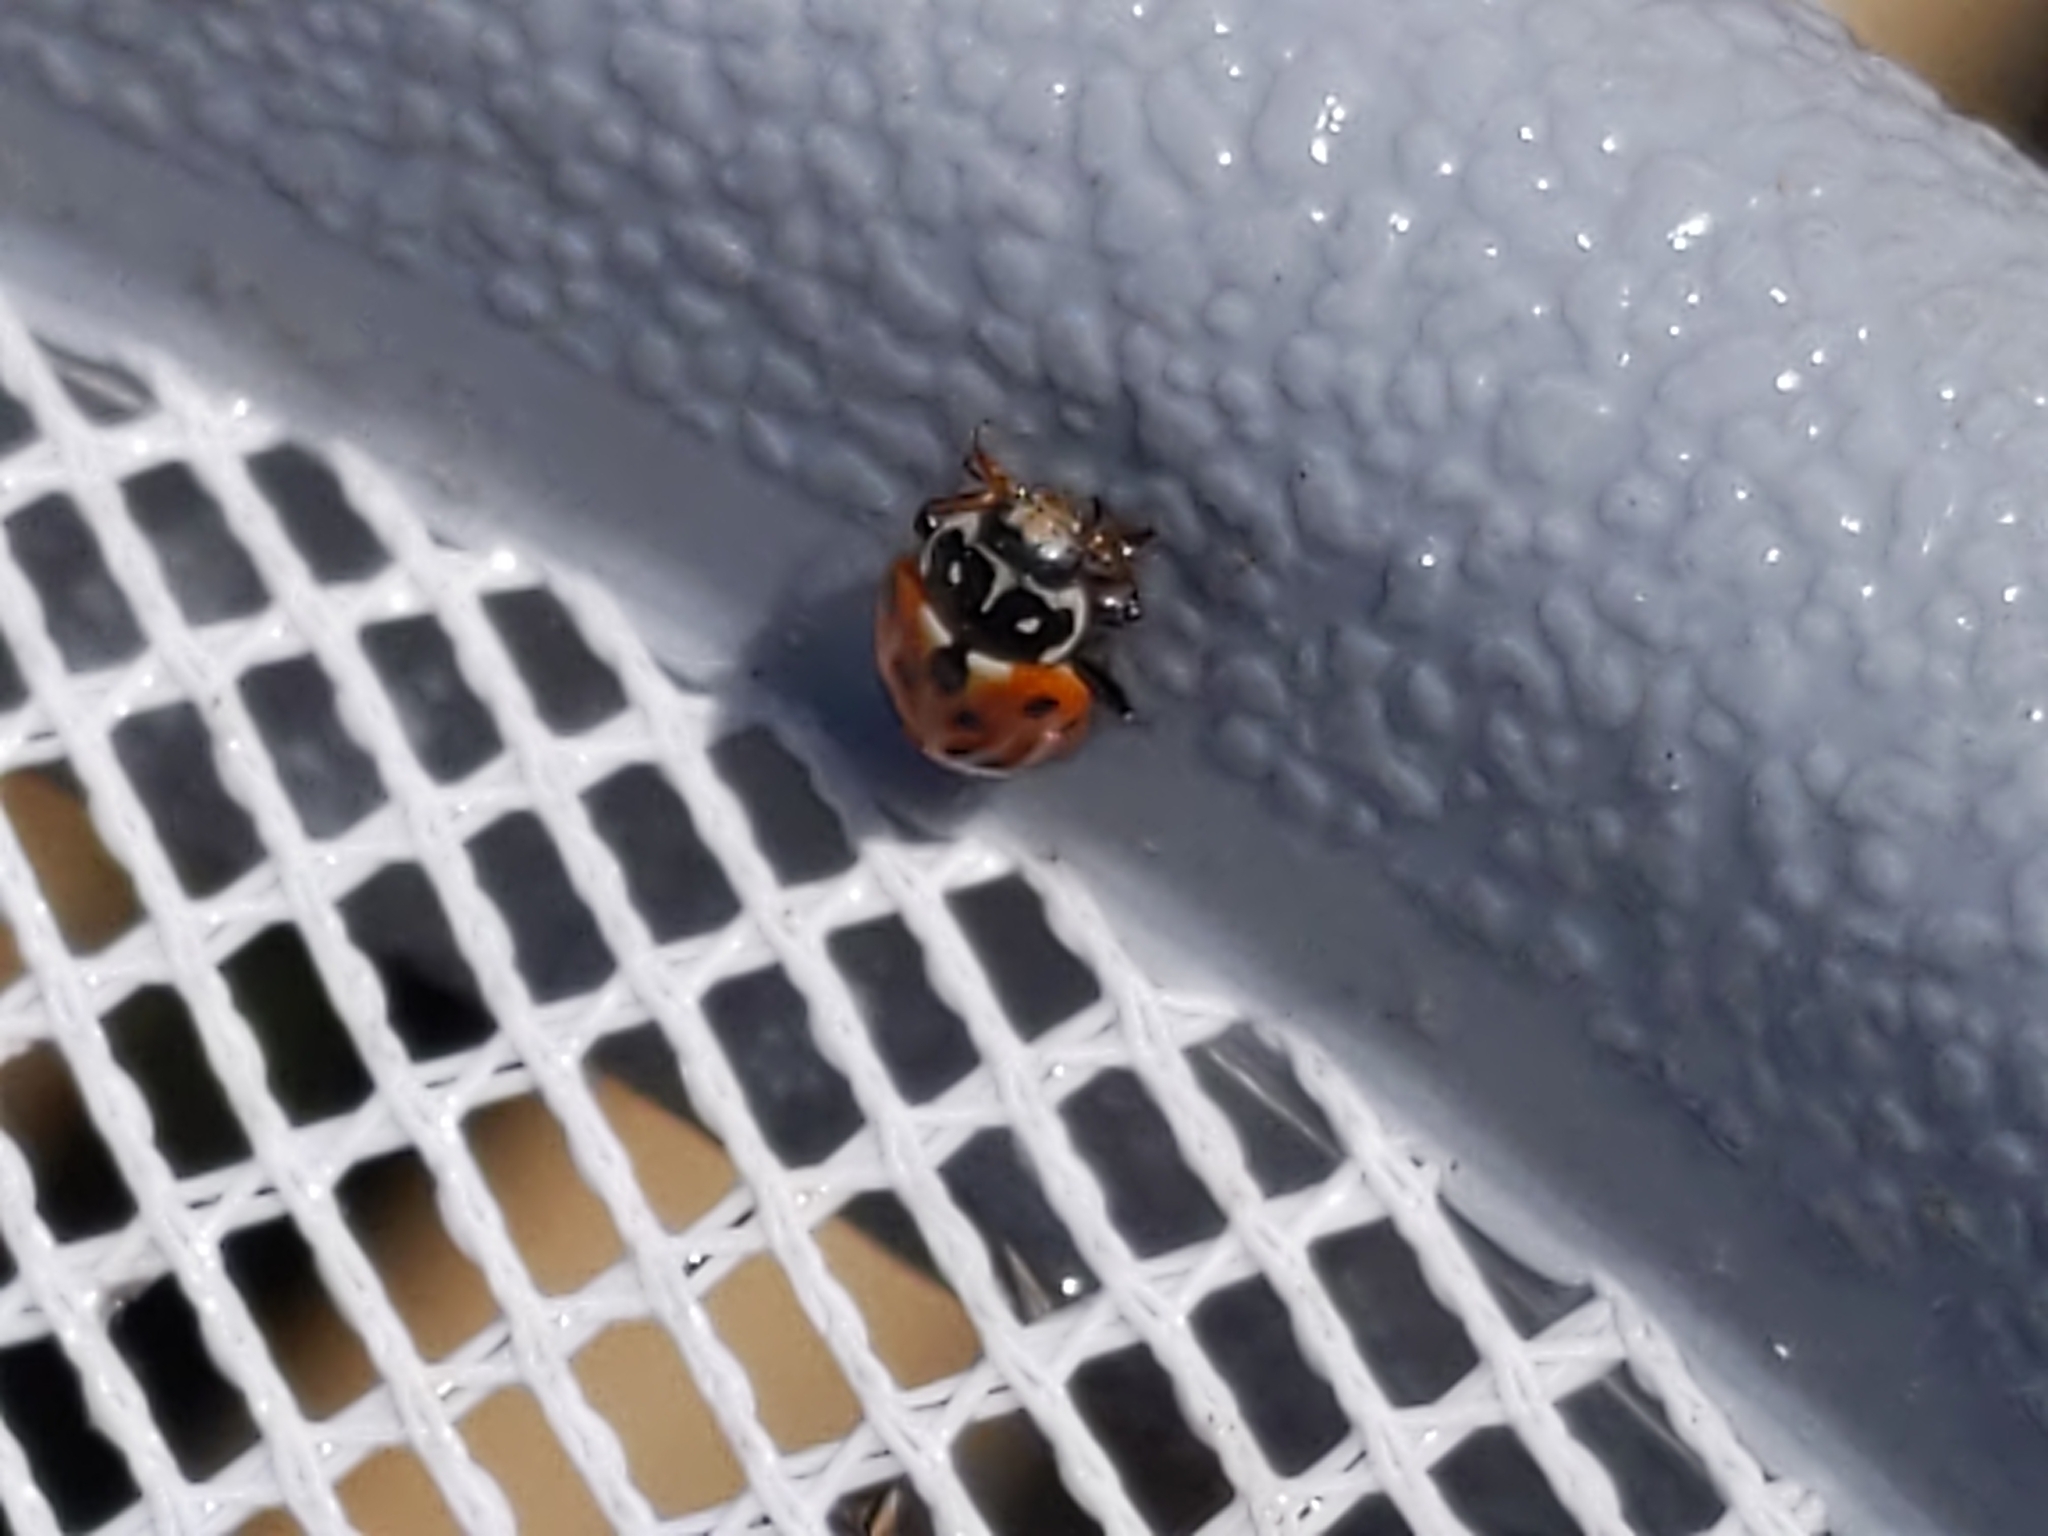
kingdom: Animalia
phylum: Arthropoda
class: Insecta
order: Coleoptera
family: Coccinellidae
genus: Hippodamia
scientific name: Hippodamia variegata
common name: Ladybird beetle
